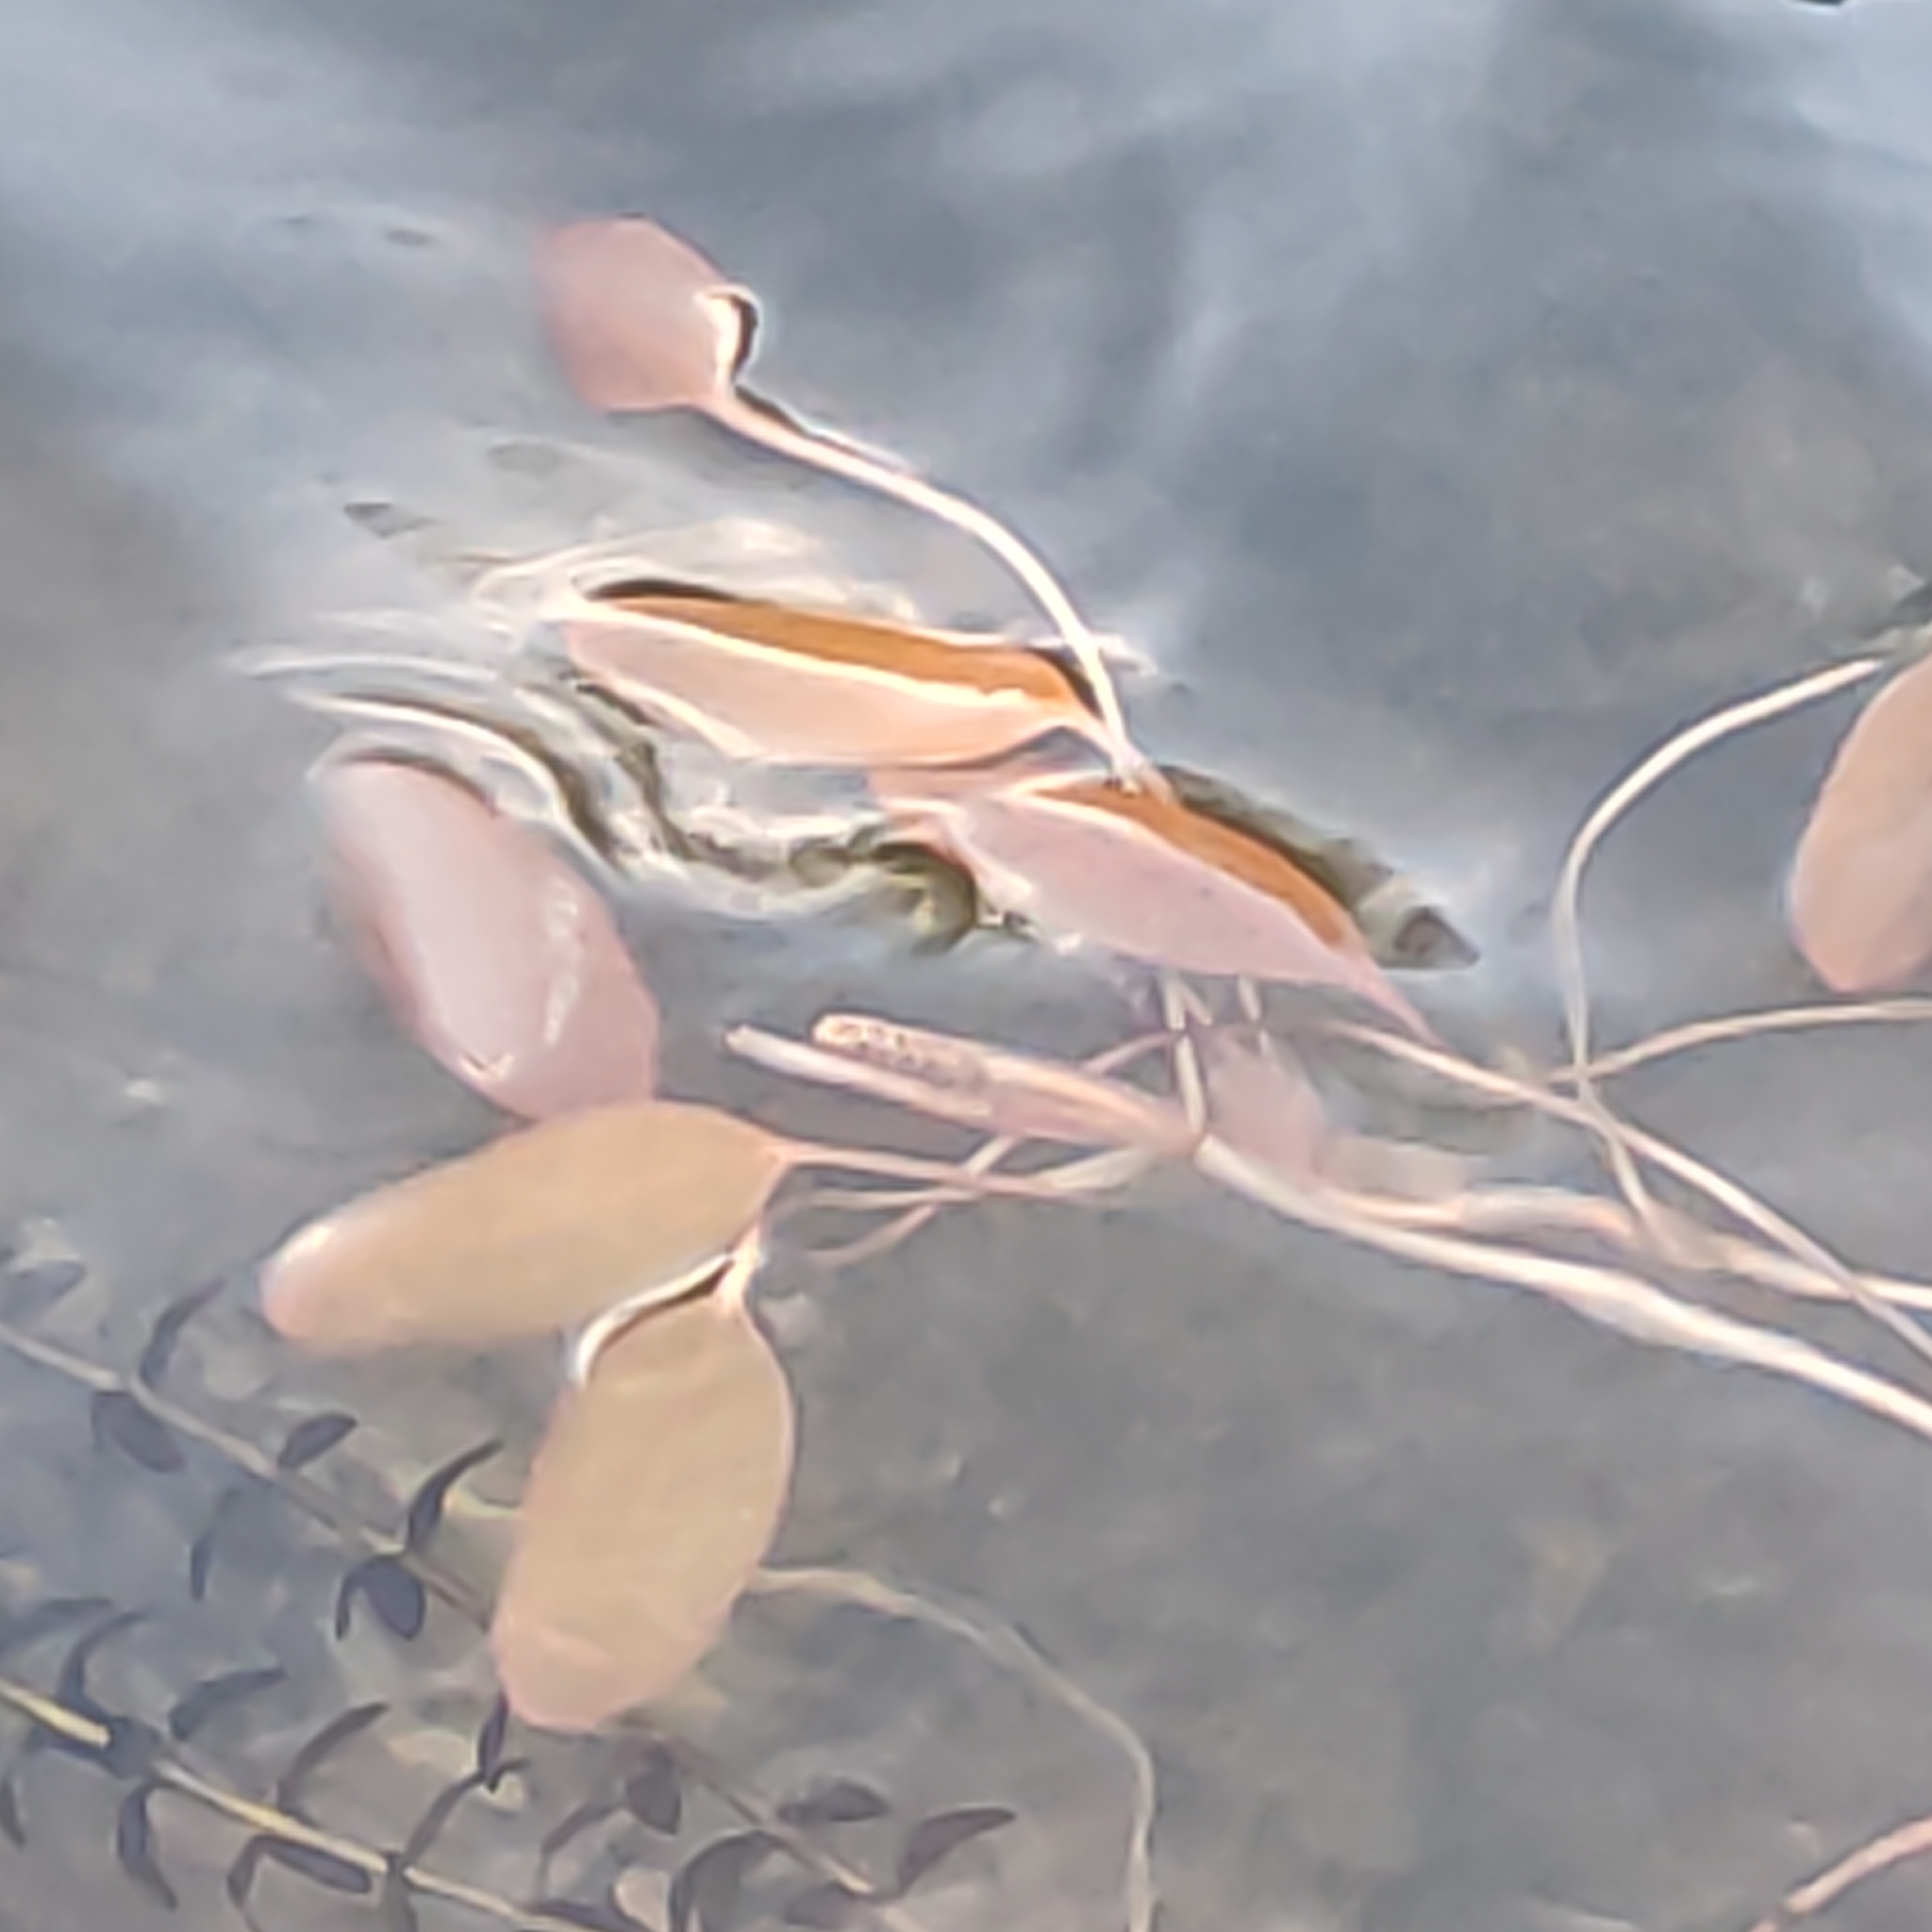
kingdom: Plantae
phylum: Tracheophyta
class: Liliopsida
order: Alismatales
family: Potamogetonaceae
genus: Potamogeton
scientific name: Potamogeton cheesemanii
